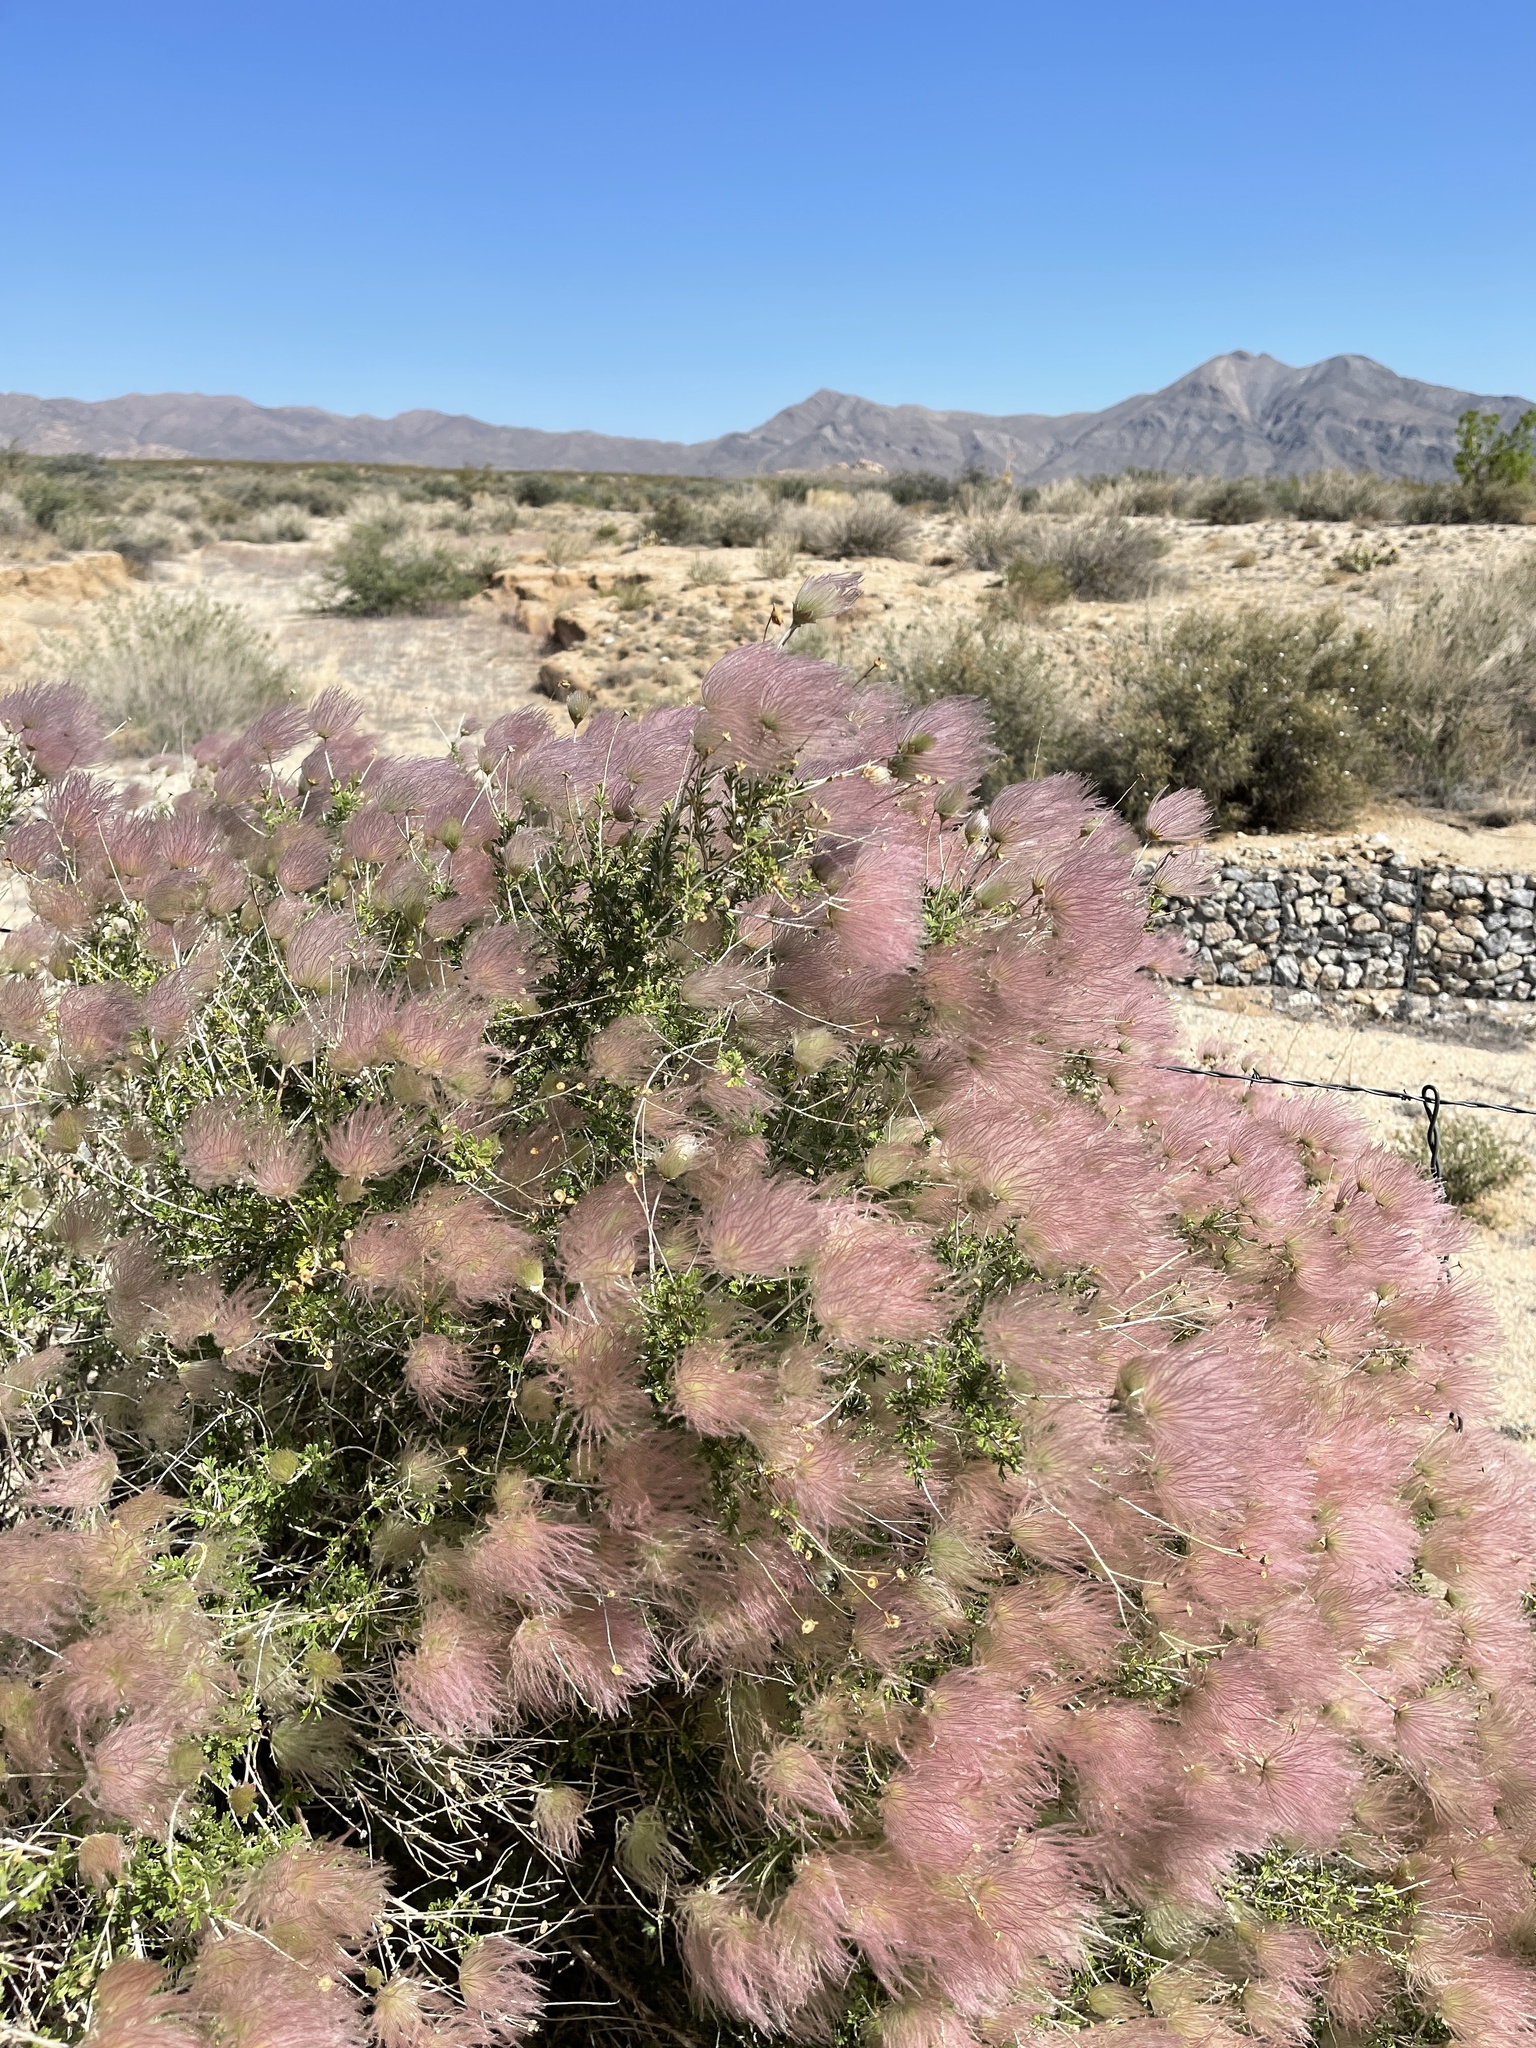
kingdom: Plantae
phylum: Tracheophyta
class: Magnoliopsida
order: Rosales
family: Rosaceae
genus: Fallugia
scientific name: Fallugia paradoxa
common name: Apache-plume
